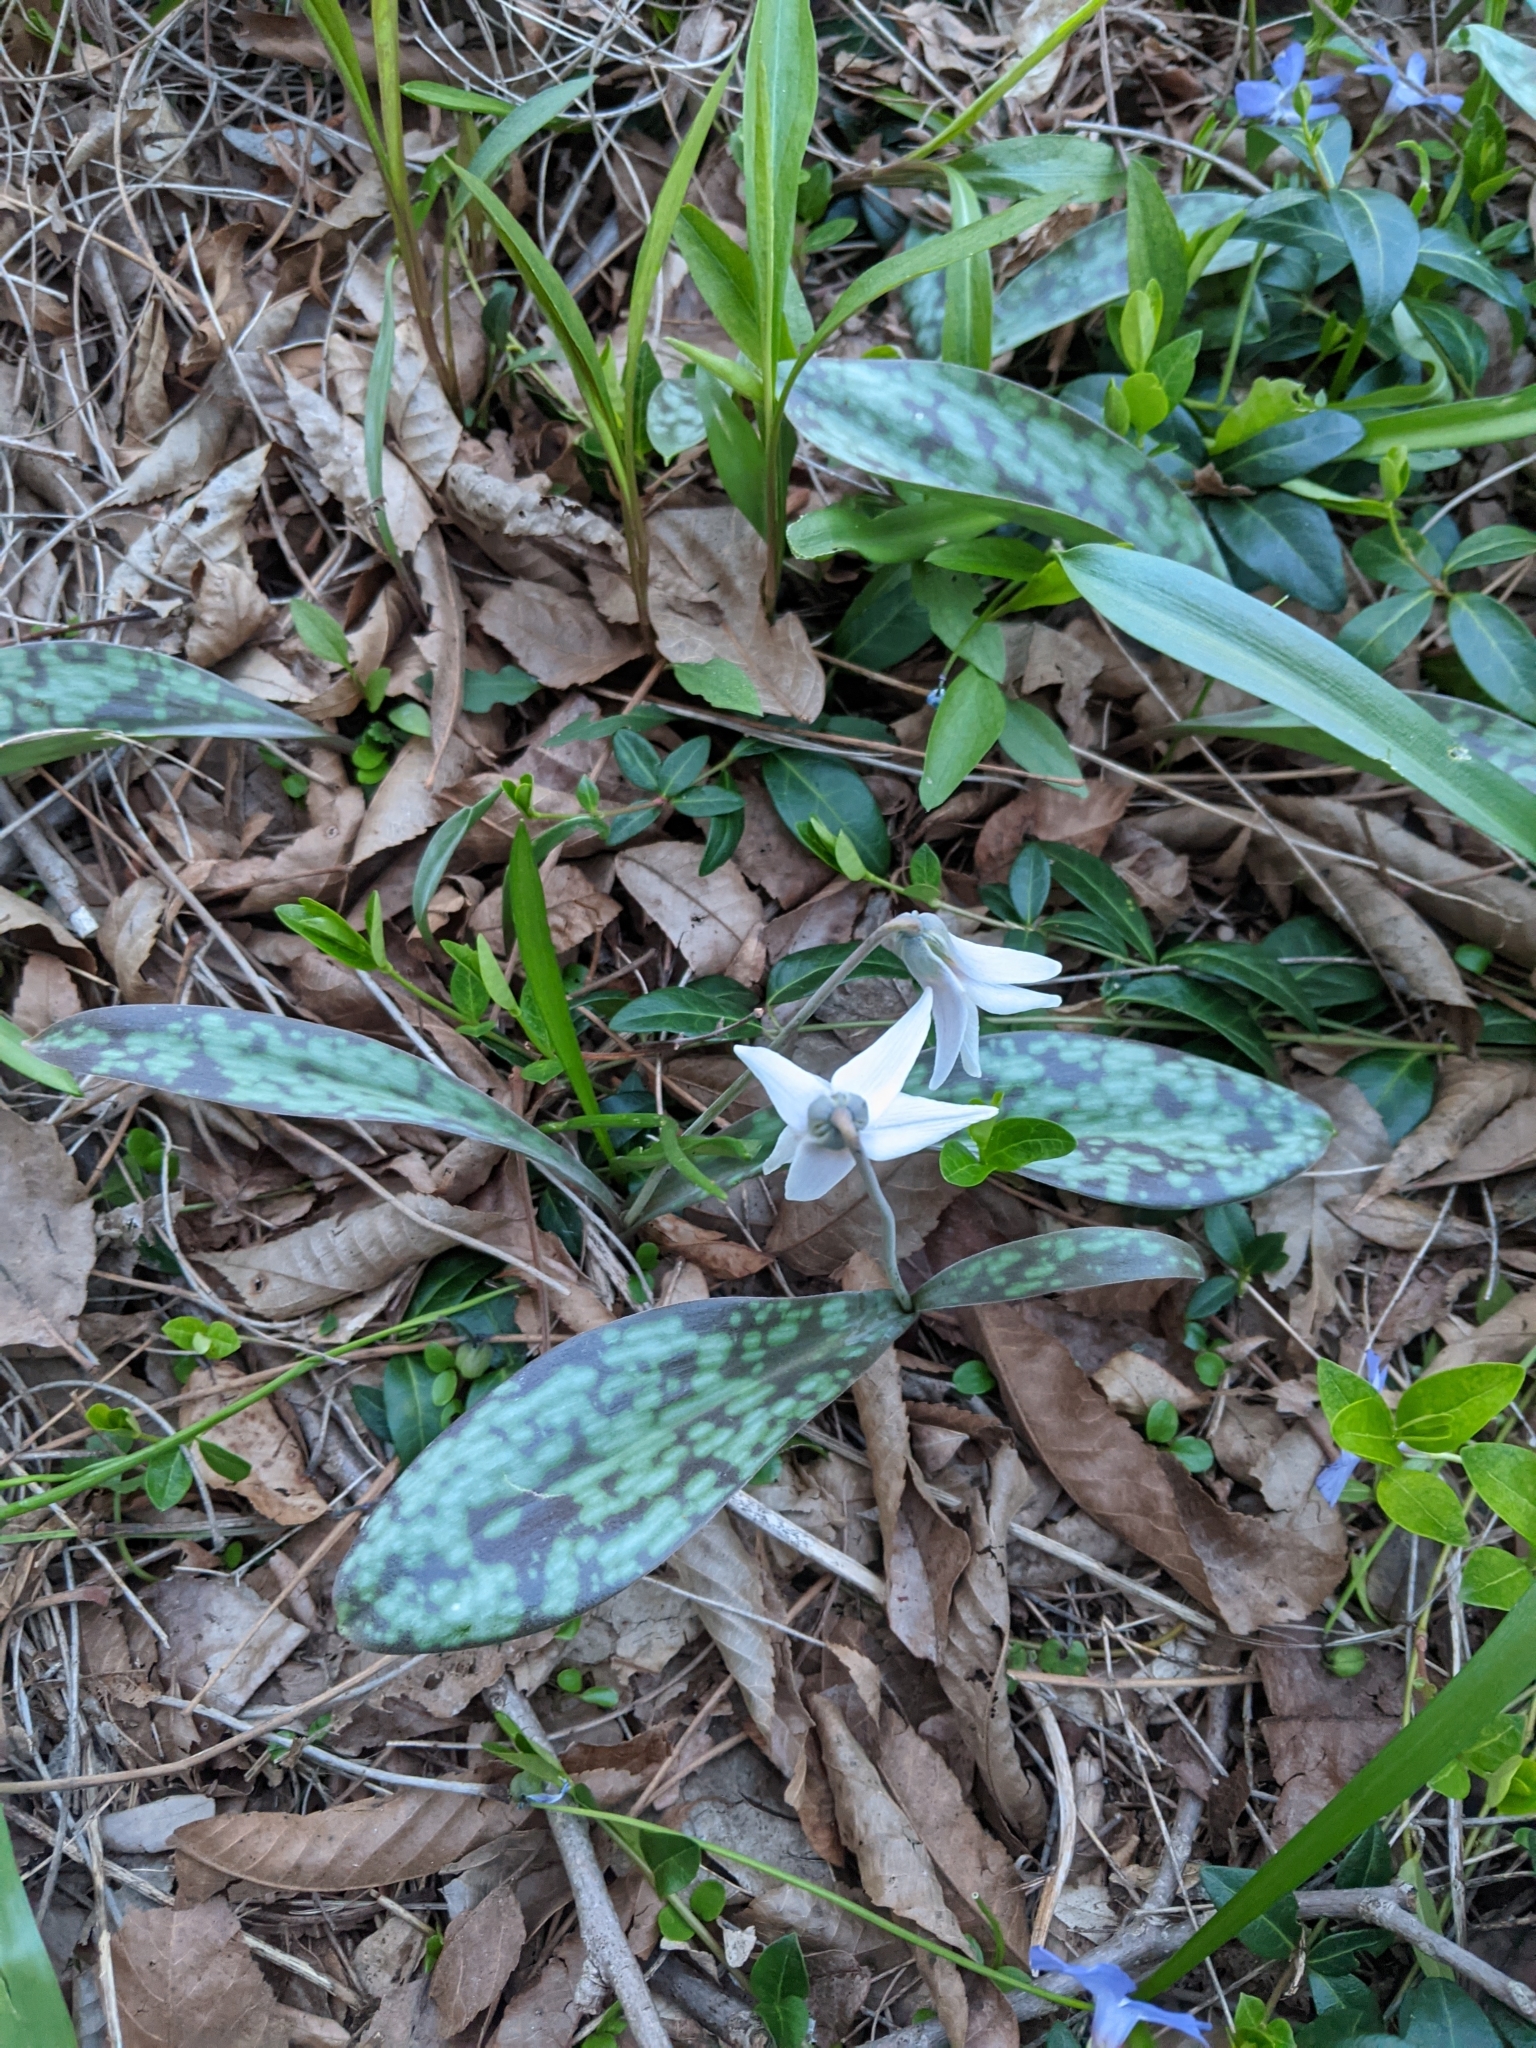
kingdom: Plantae
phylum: Tracheophyta
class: Liliopsida
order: Liliales
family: Liliaceae
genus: Erythronium
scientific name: Erythronium albidum
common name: White trout-lily
